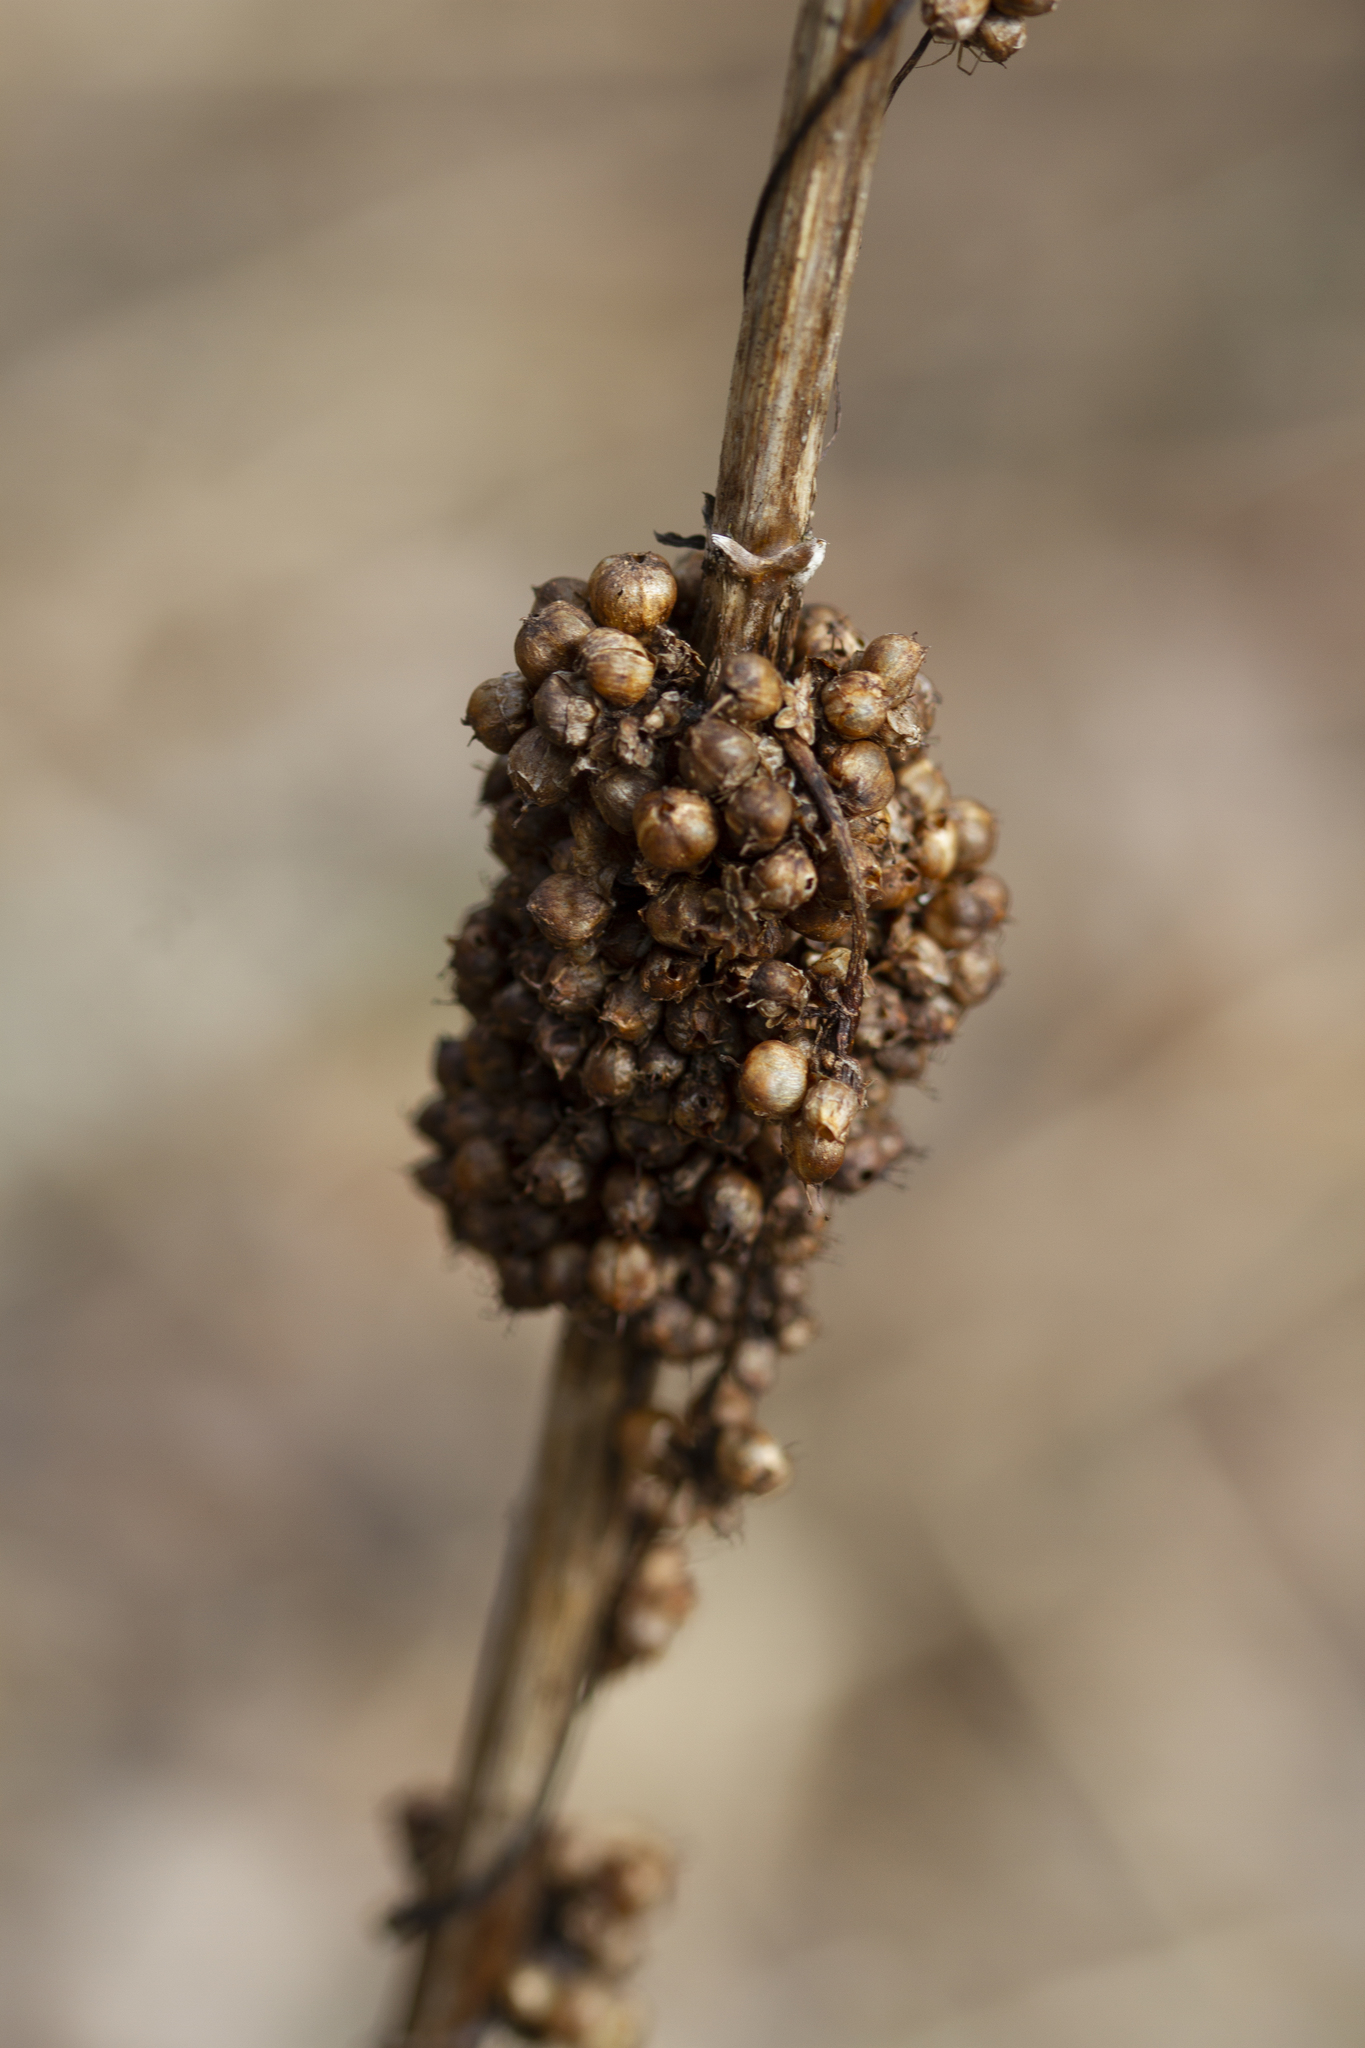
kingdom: Plantae
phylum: Tracheophyta
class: Magnoliopsida
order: Solanales
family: Convolvulaceae
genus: Cuscuta
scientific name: Cuscuta gronovii
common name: Common dodder
